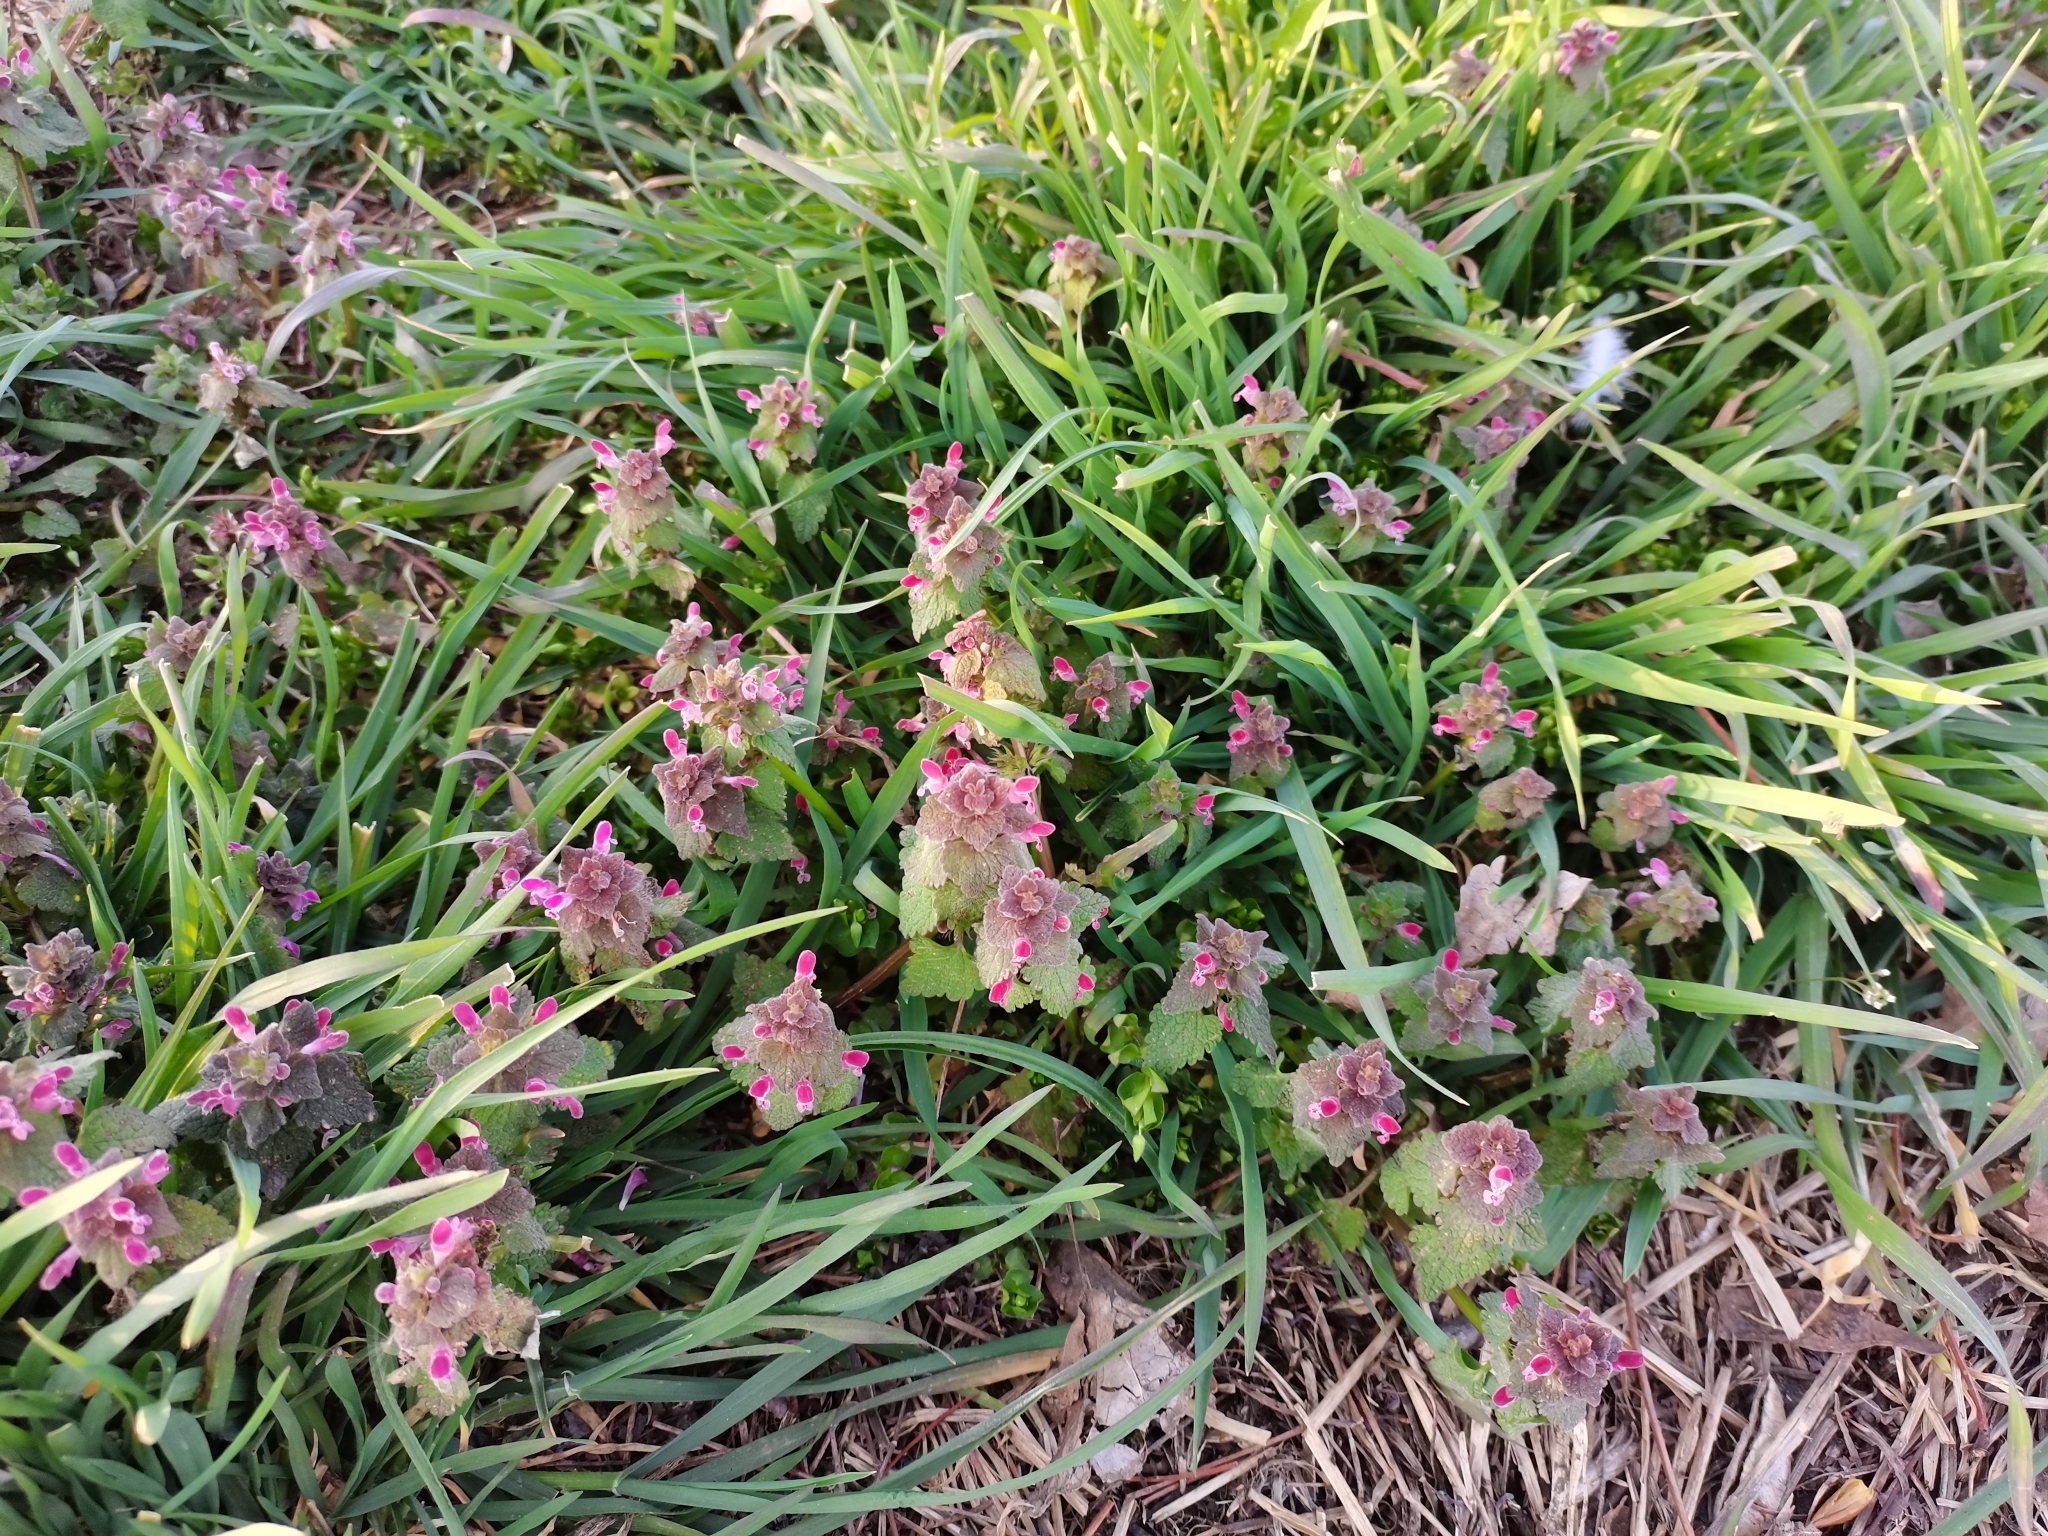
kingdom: Plantae
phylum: Tracheophyta
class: Magnoliopsida
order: Lamiales
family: Lamiaceae
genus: Lamium
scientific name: Lamium purpureum
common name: Red dead-nettle
